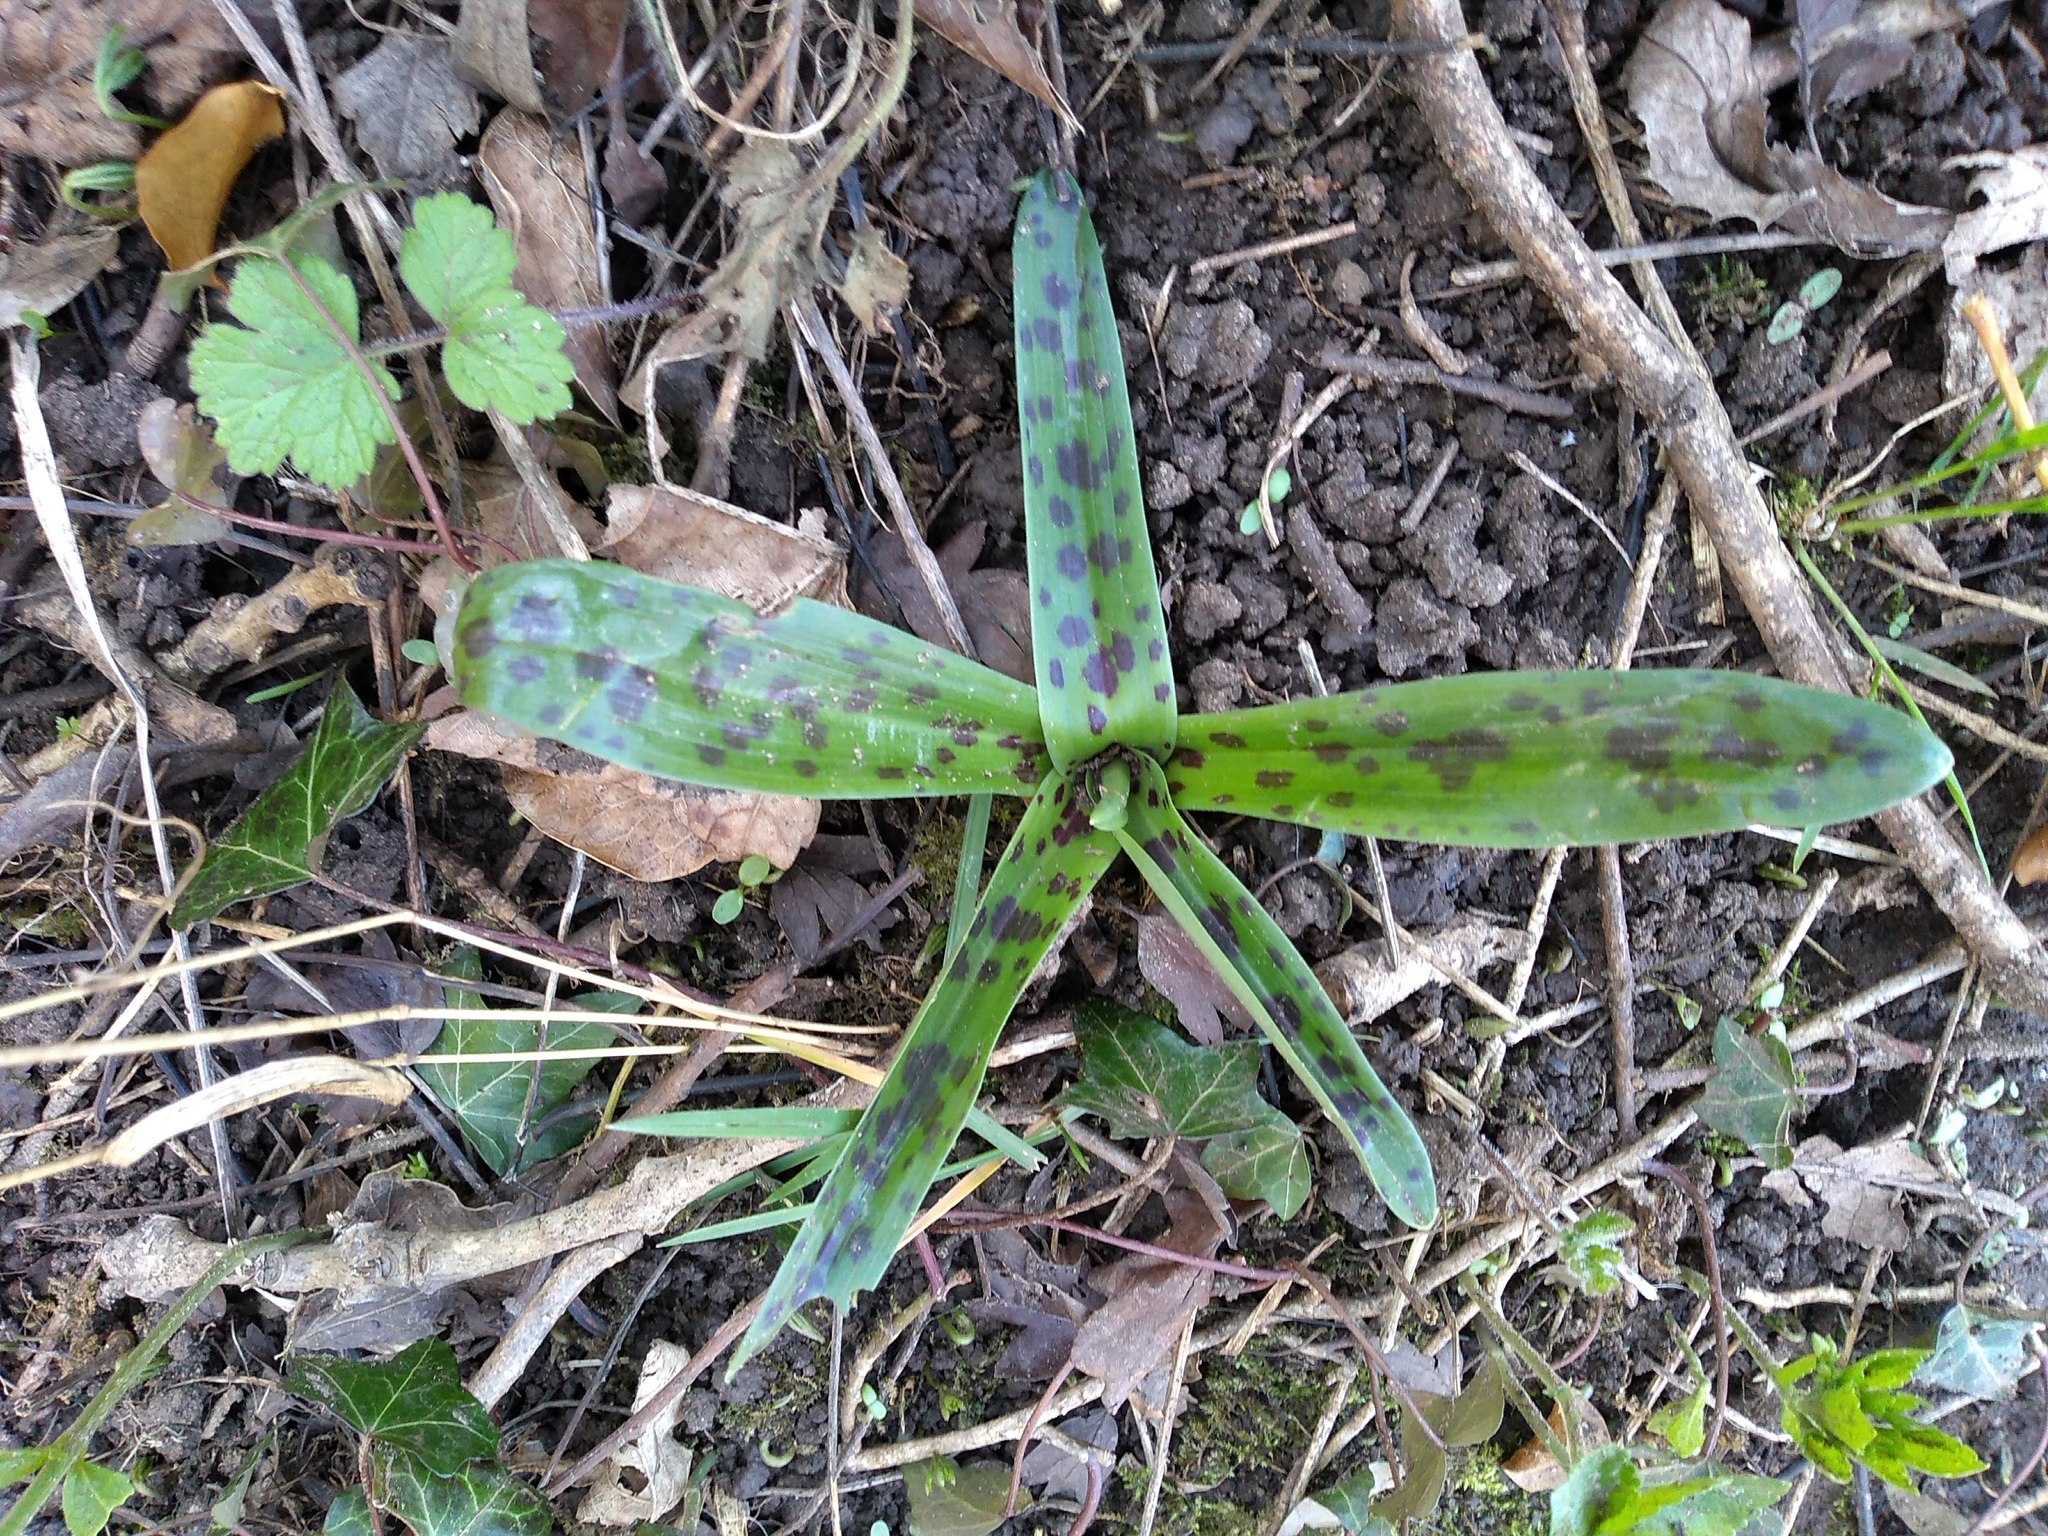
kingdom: Plantae
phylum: Tracheophyta
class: Liliopsida
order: Asparagales
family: Orchidaceae
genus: Orchis
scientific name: Orchis mascula
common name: Early-purple orchid
